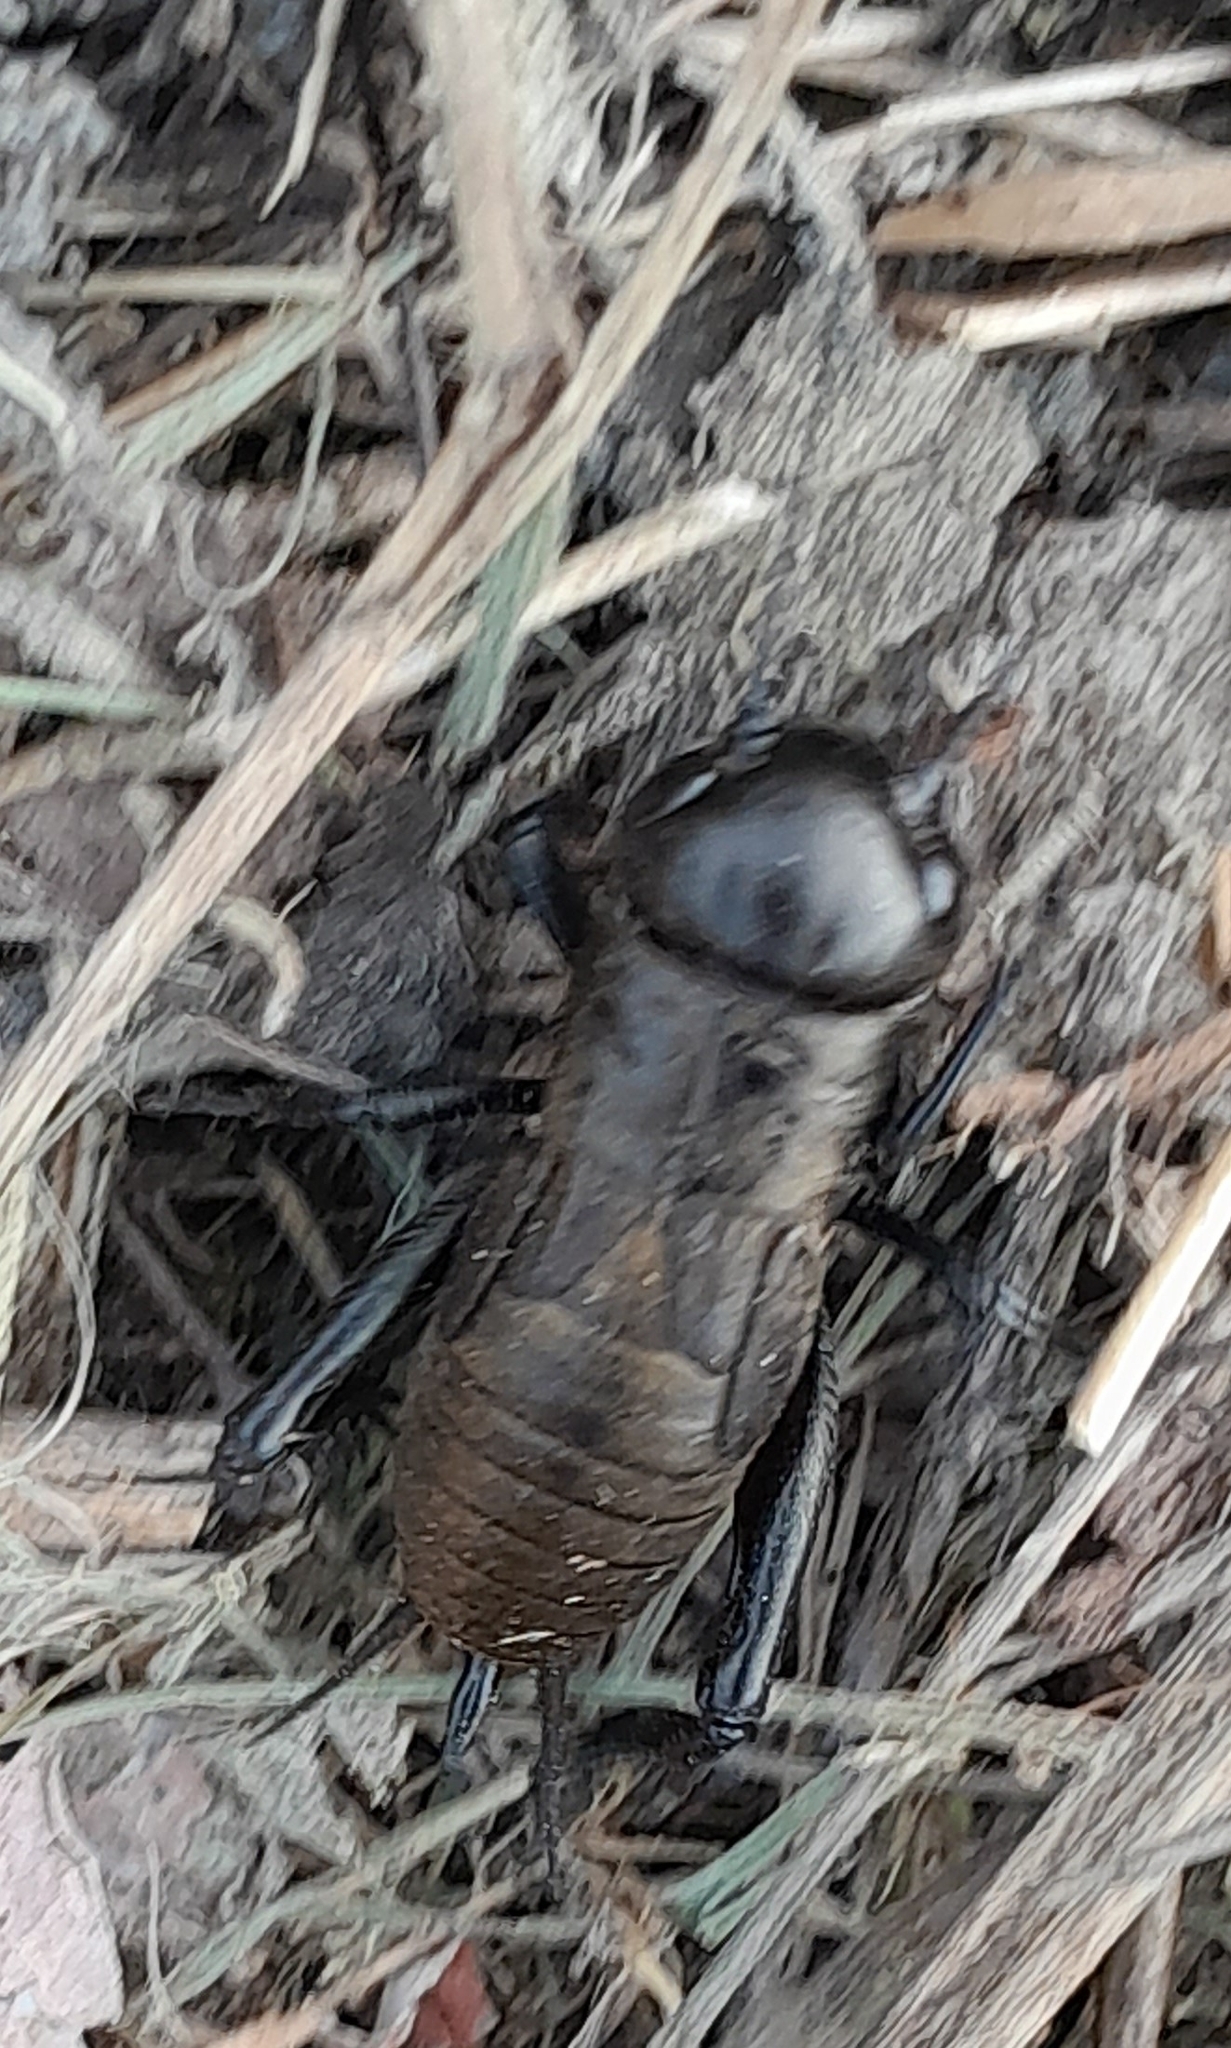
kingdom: Animalia
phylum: Arthropoda
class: Insecta
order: Orthoptera
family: Gryllidae
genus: Gryllus
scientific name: Gryllus campestris
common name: Field cricket
